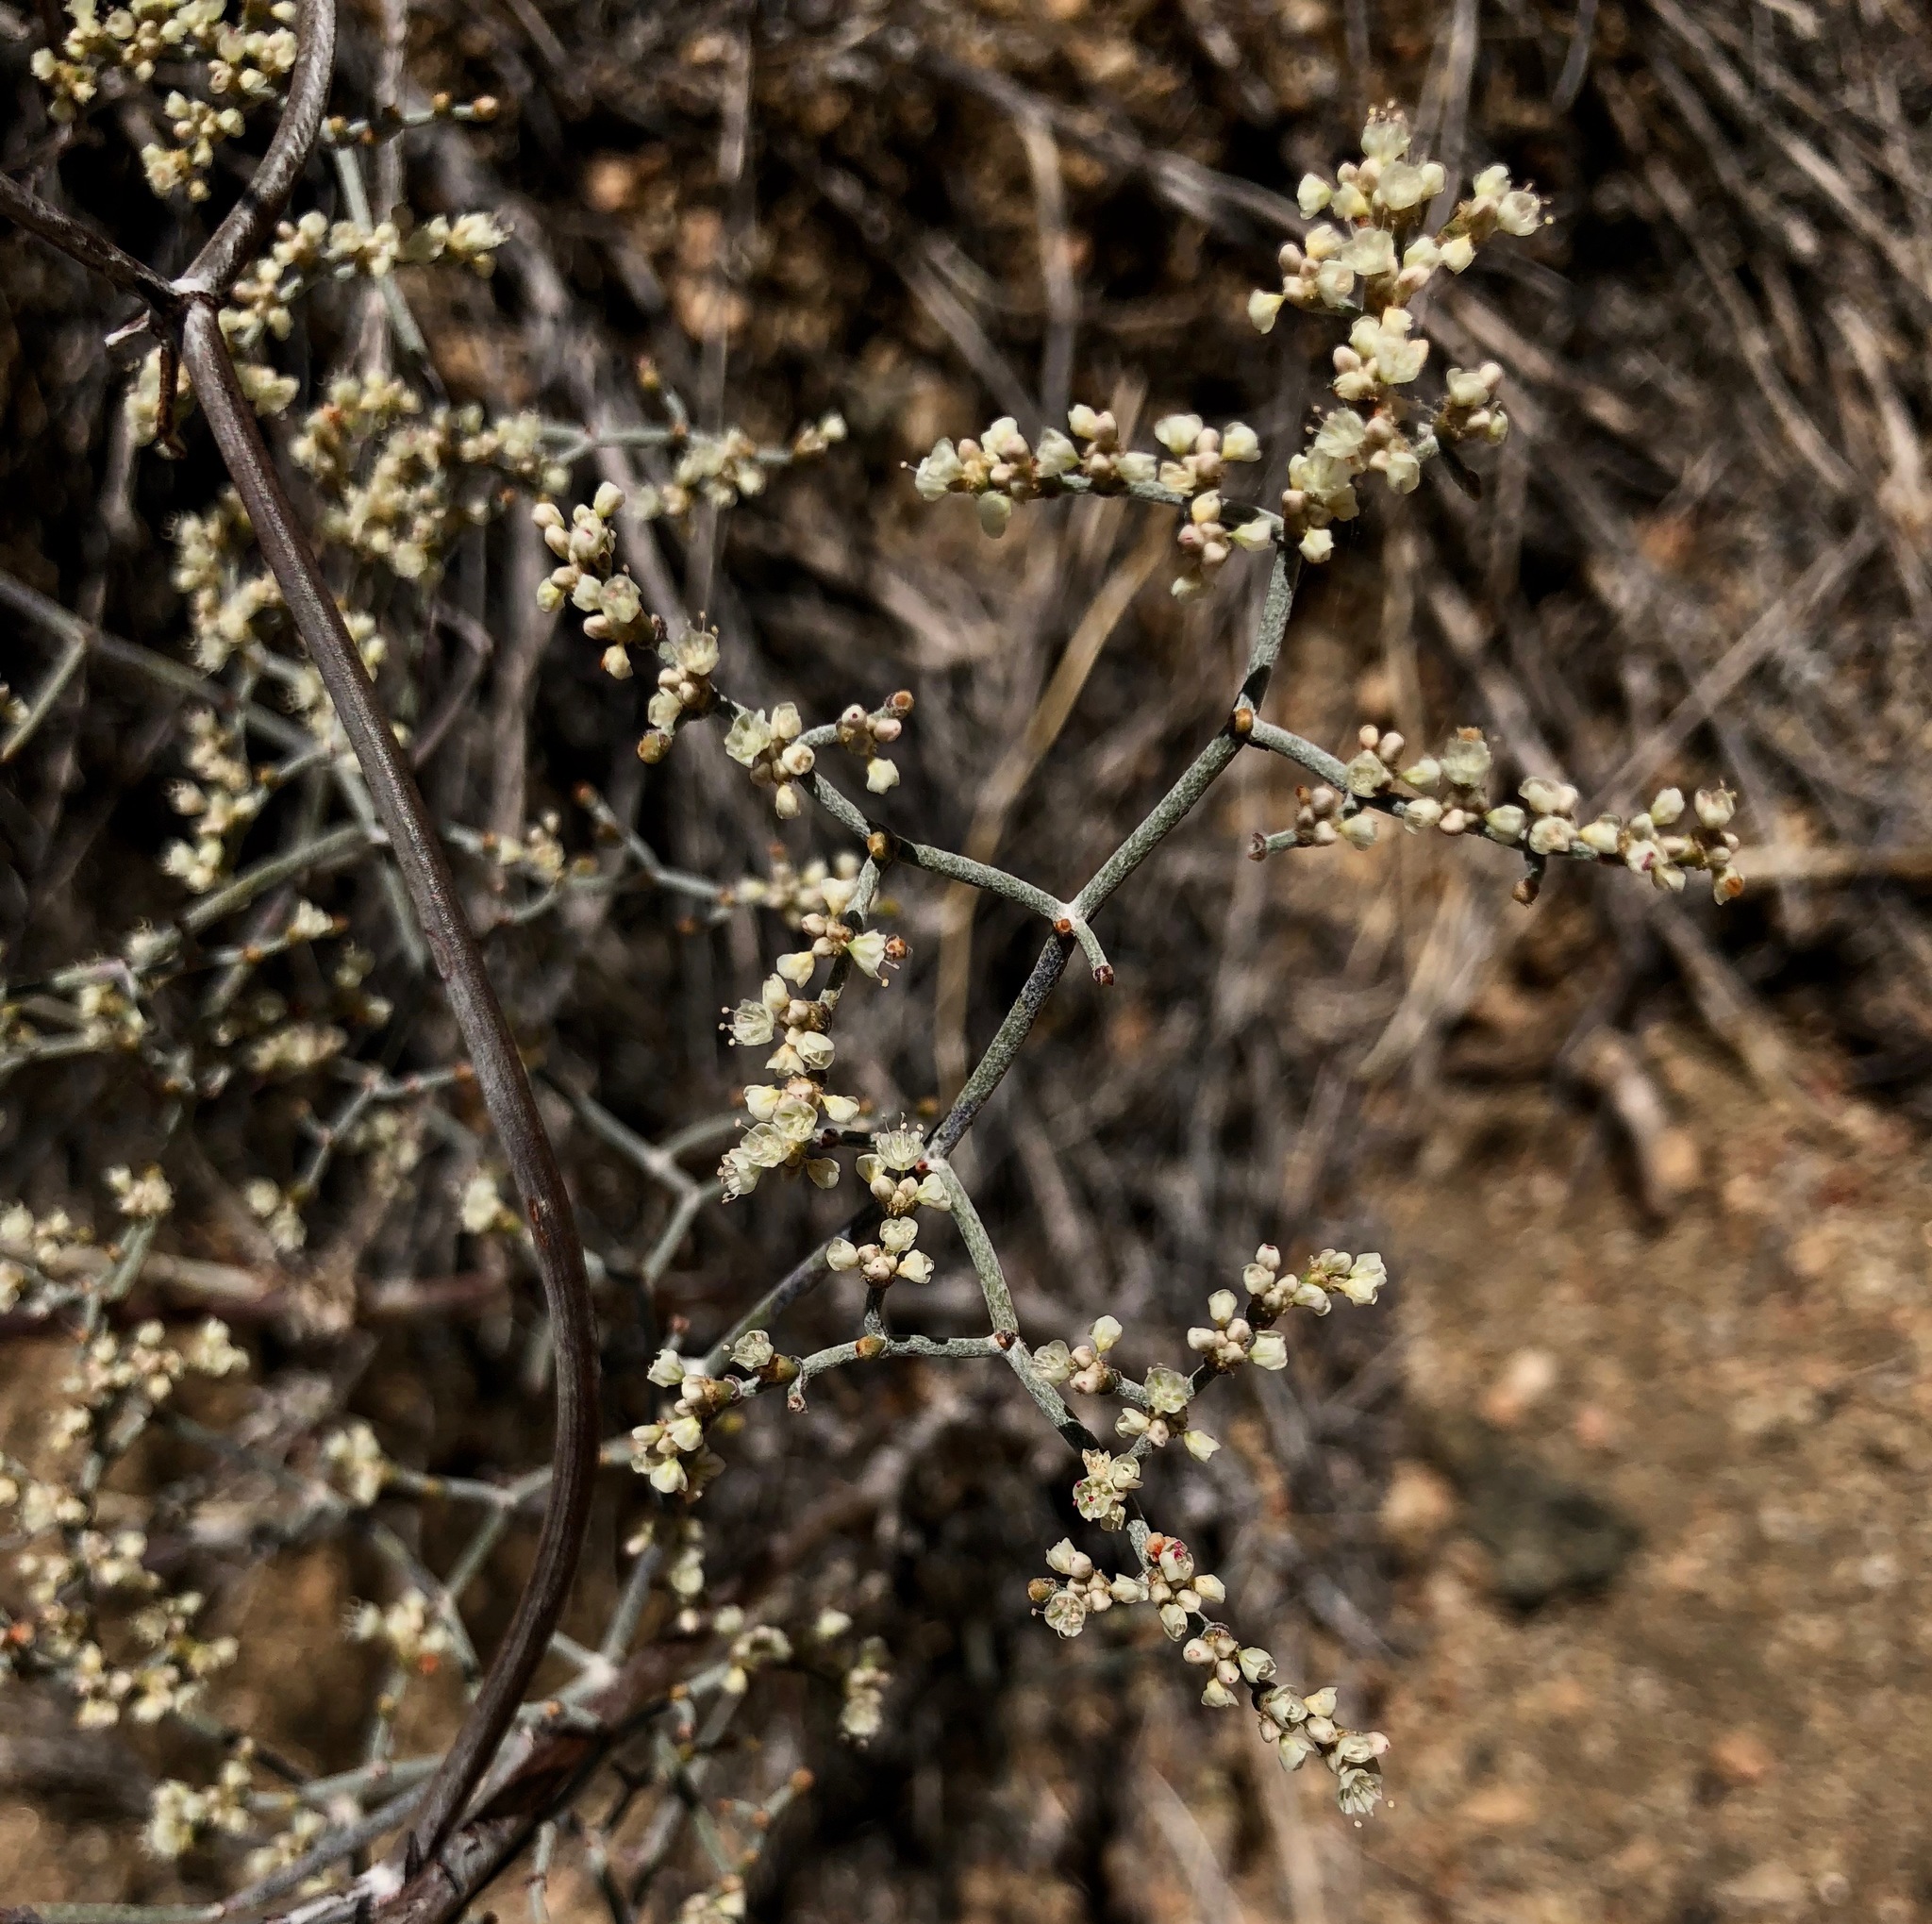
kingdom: Plantae
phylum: Tracheophyta
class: Magnoliopsida
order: Caryophyllales
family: Polygonaceae
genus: Eriogonum
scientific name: Eriogonum plumatella
